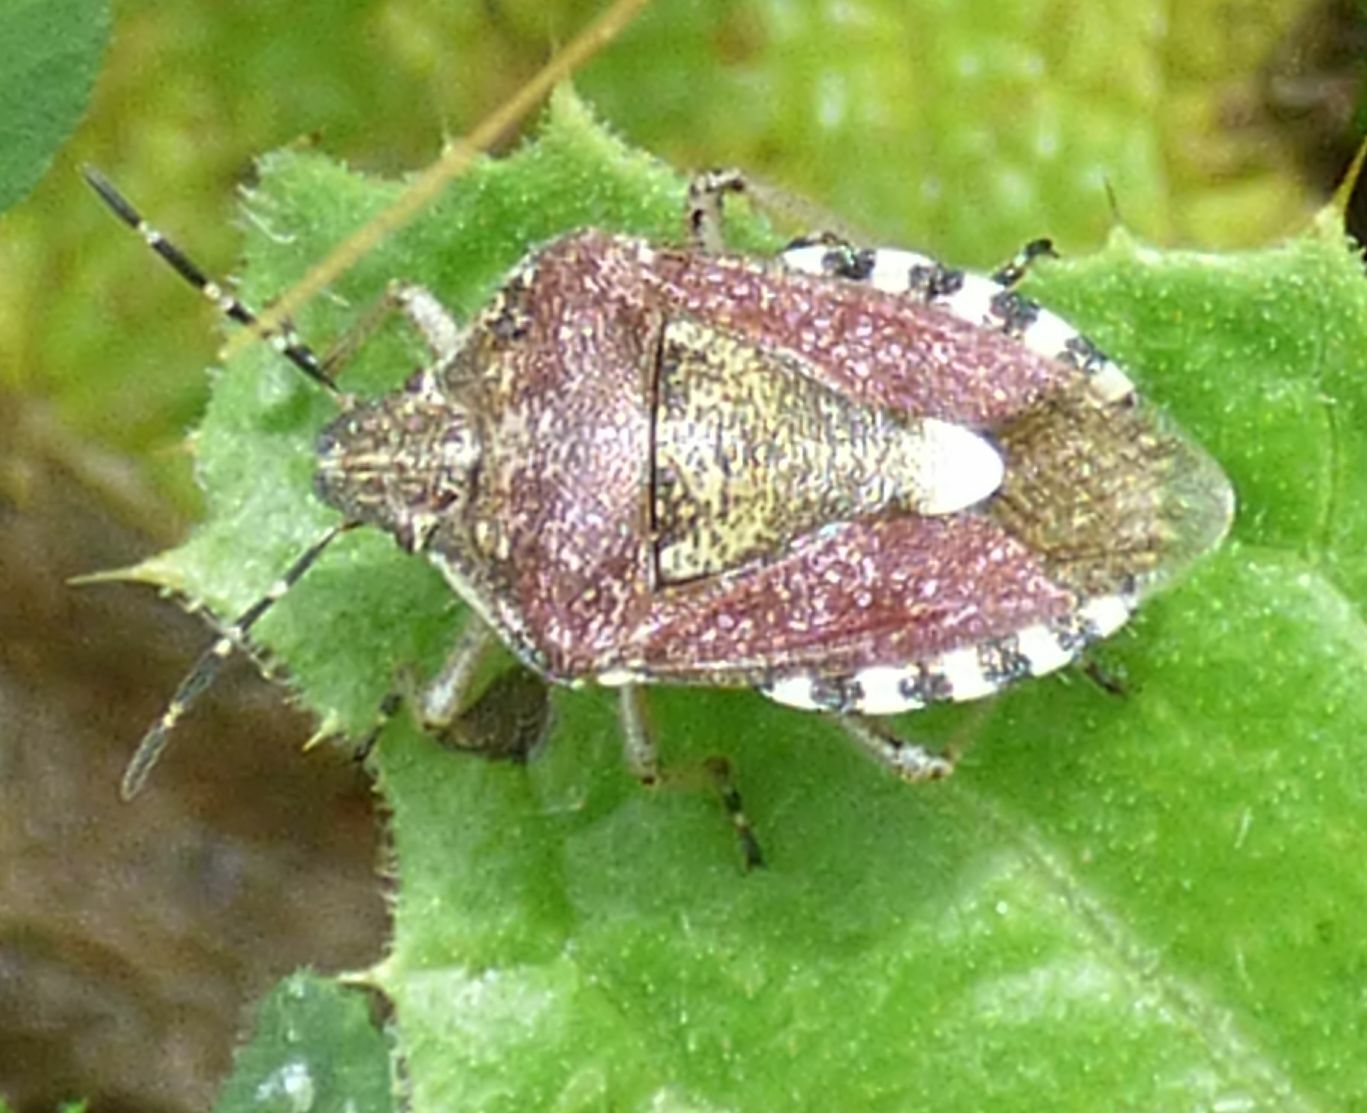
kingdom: Animalia
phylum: Arthropoda
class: Insecta
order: Hemiptera
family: Pentatomidae
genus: Dolycoris
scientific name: Dolycoris baccarum
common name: Sloe bug
